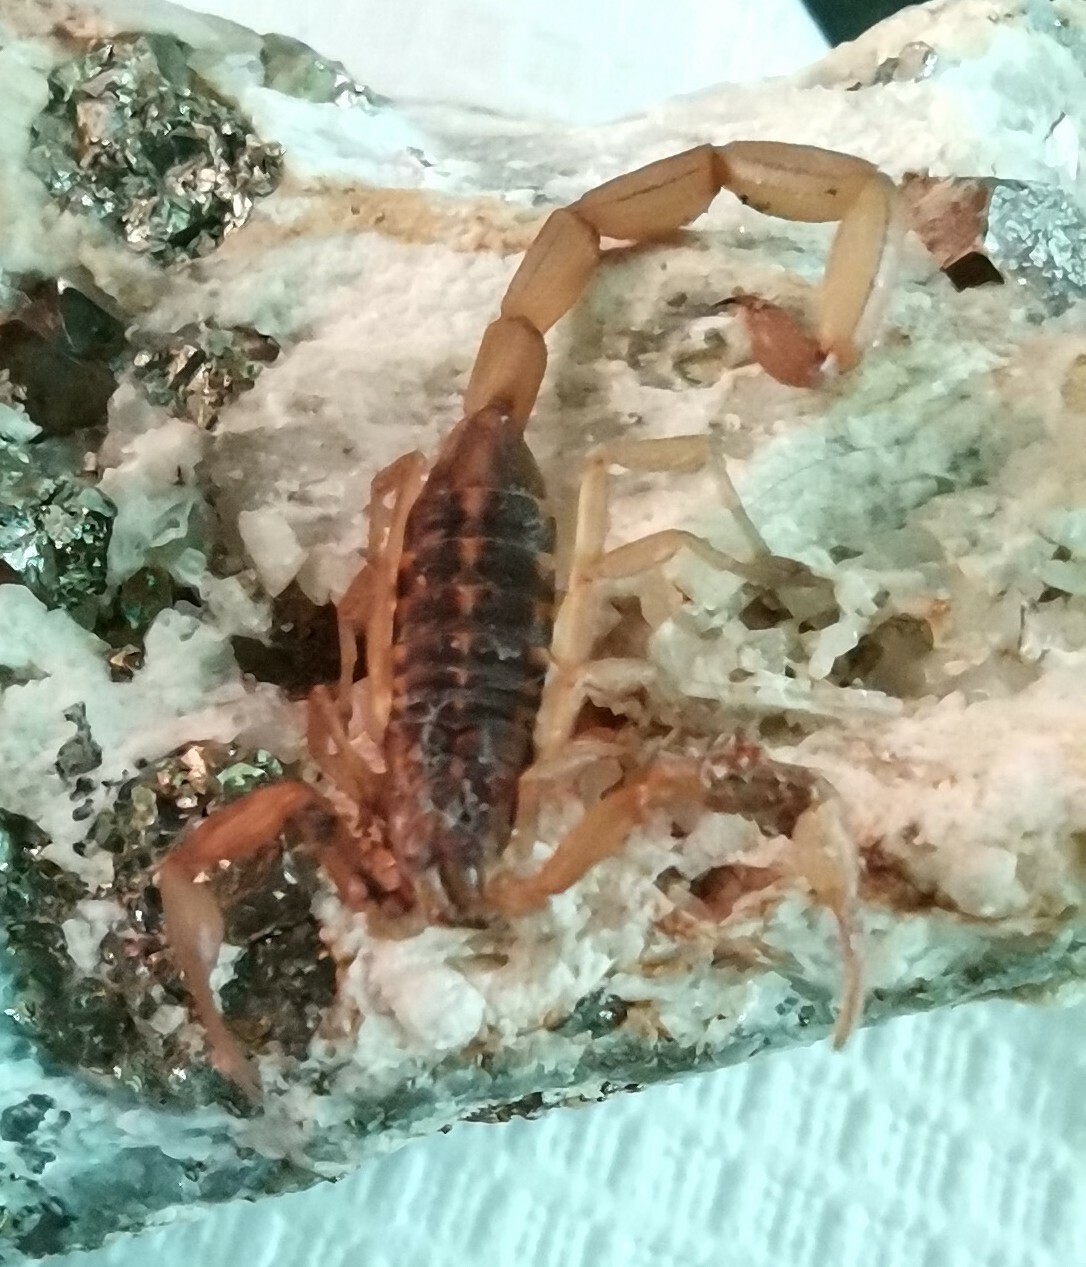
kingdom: Animalia
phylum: Arthropoda
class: Arachnida
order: Scorpiones
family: Buthidae
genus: Centruroides
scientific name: Centruroides ornatus
